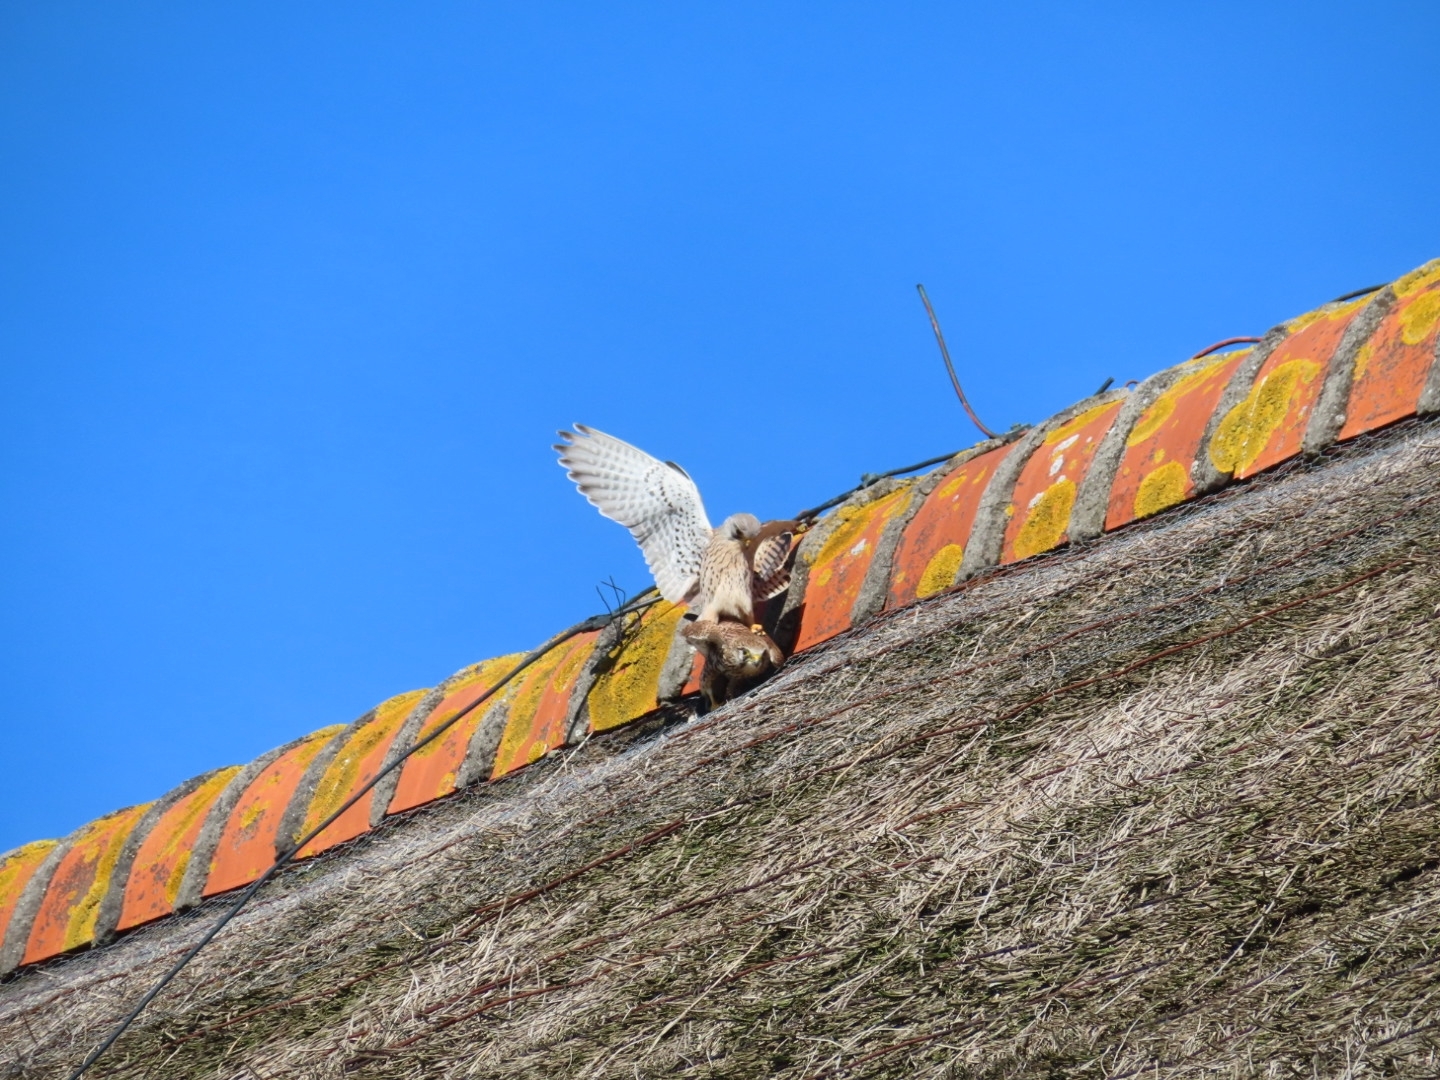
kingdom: Animalia
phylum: Chordata
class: Aves
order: Falconiformes
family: Falconidae
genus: Falco
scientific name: Falco tinnunculus
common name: Common kestrel
